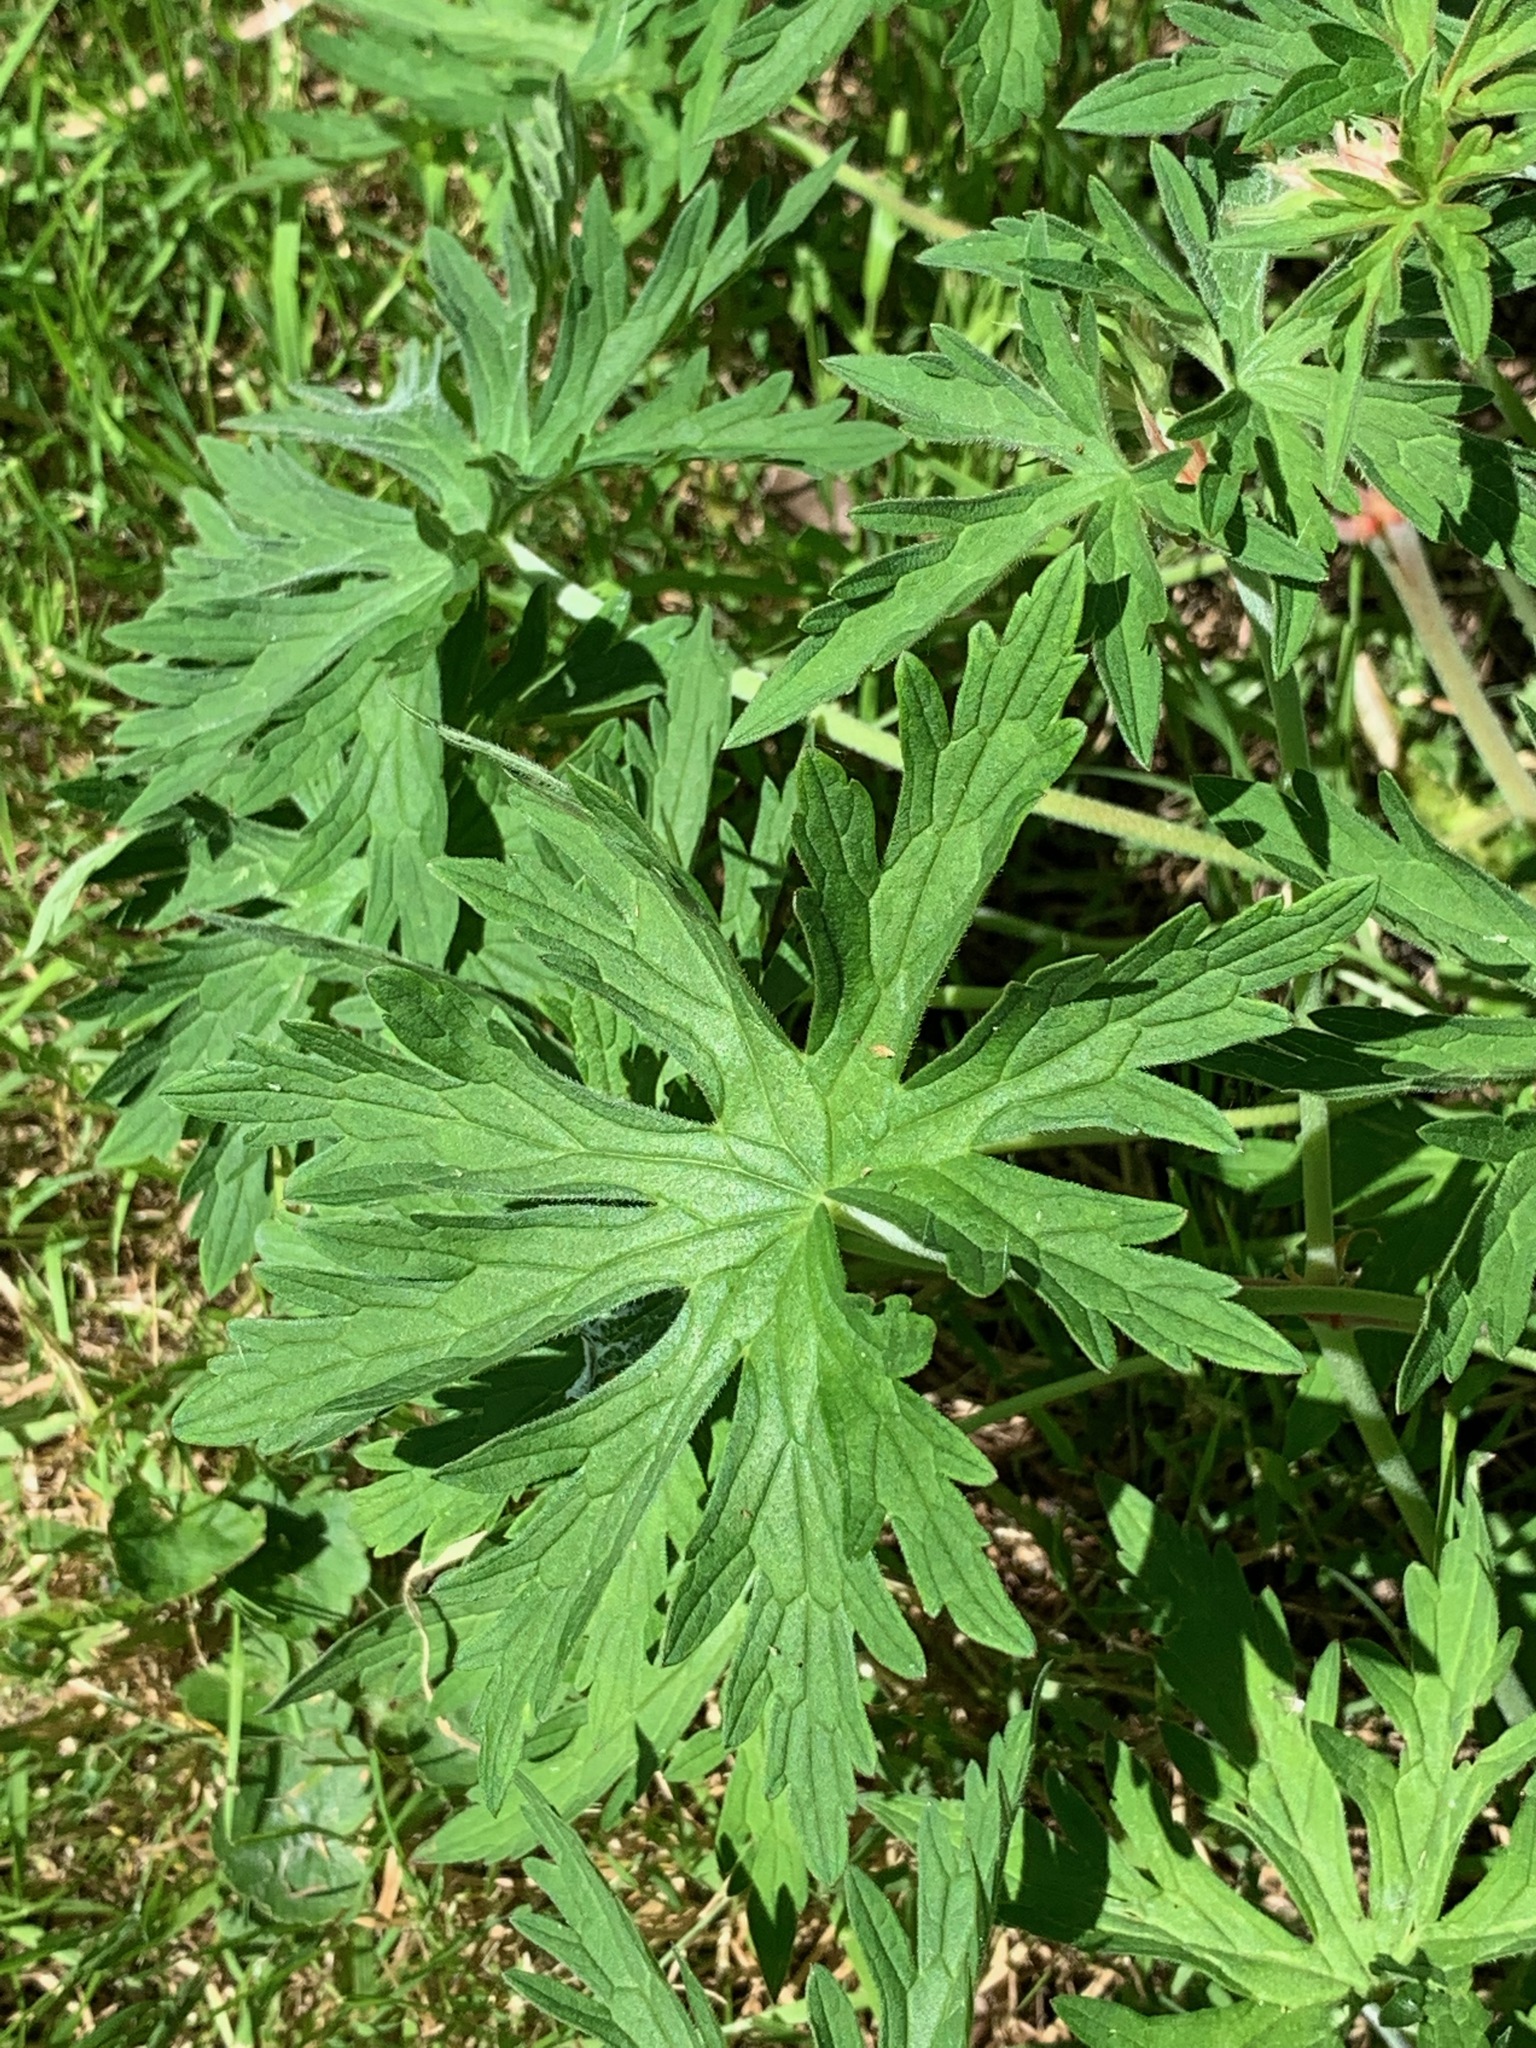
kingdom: Plantae
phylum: Tracheophyta
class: Magnoliopsida
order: Geraniales
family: Geraniaceae
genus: Geranium
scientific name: Geranium pratense
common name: Meadow crane's-bill
